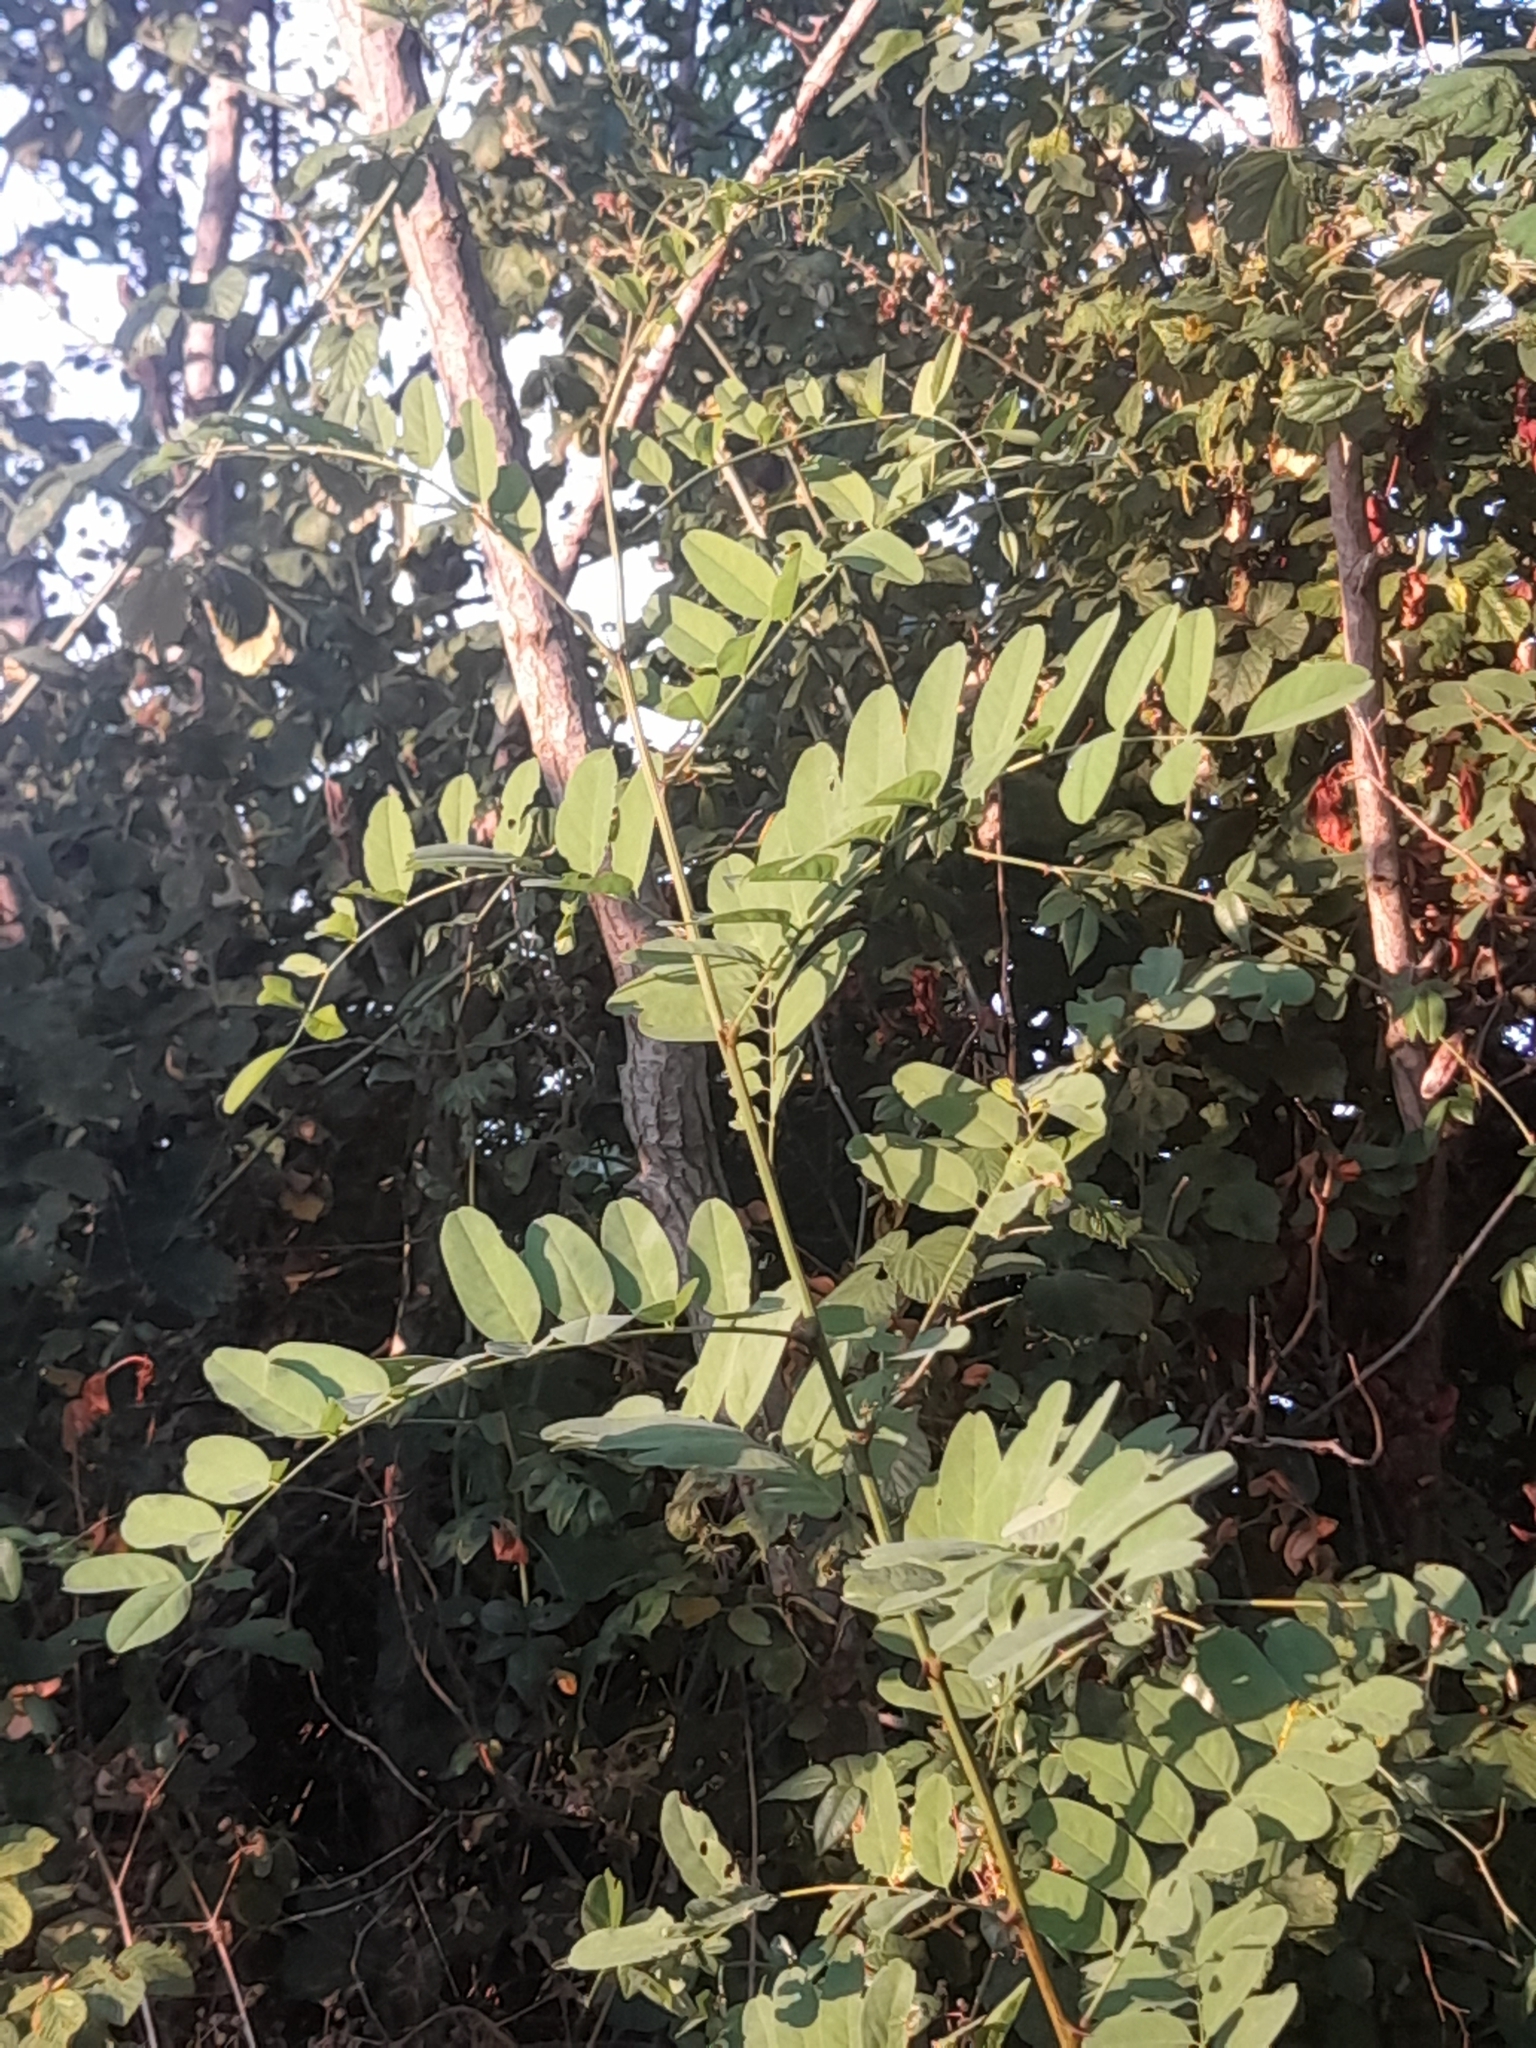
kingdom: Plantae
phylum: Tracheophyta
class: Magnoliopsida
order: Fabales
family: Fabaceae
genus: Robinia
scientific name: Robinia pseudoacacia
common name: Black locust
